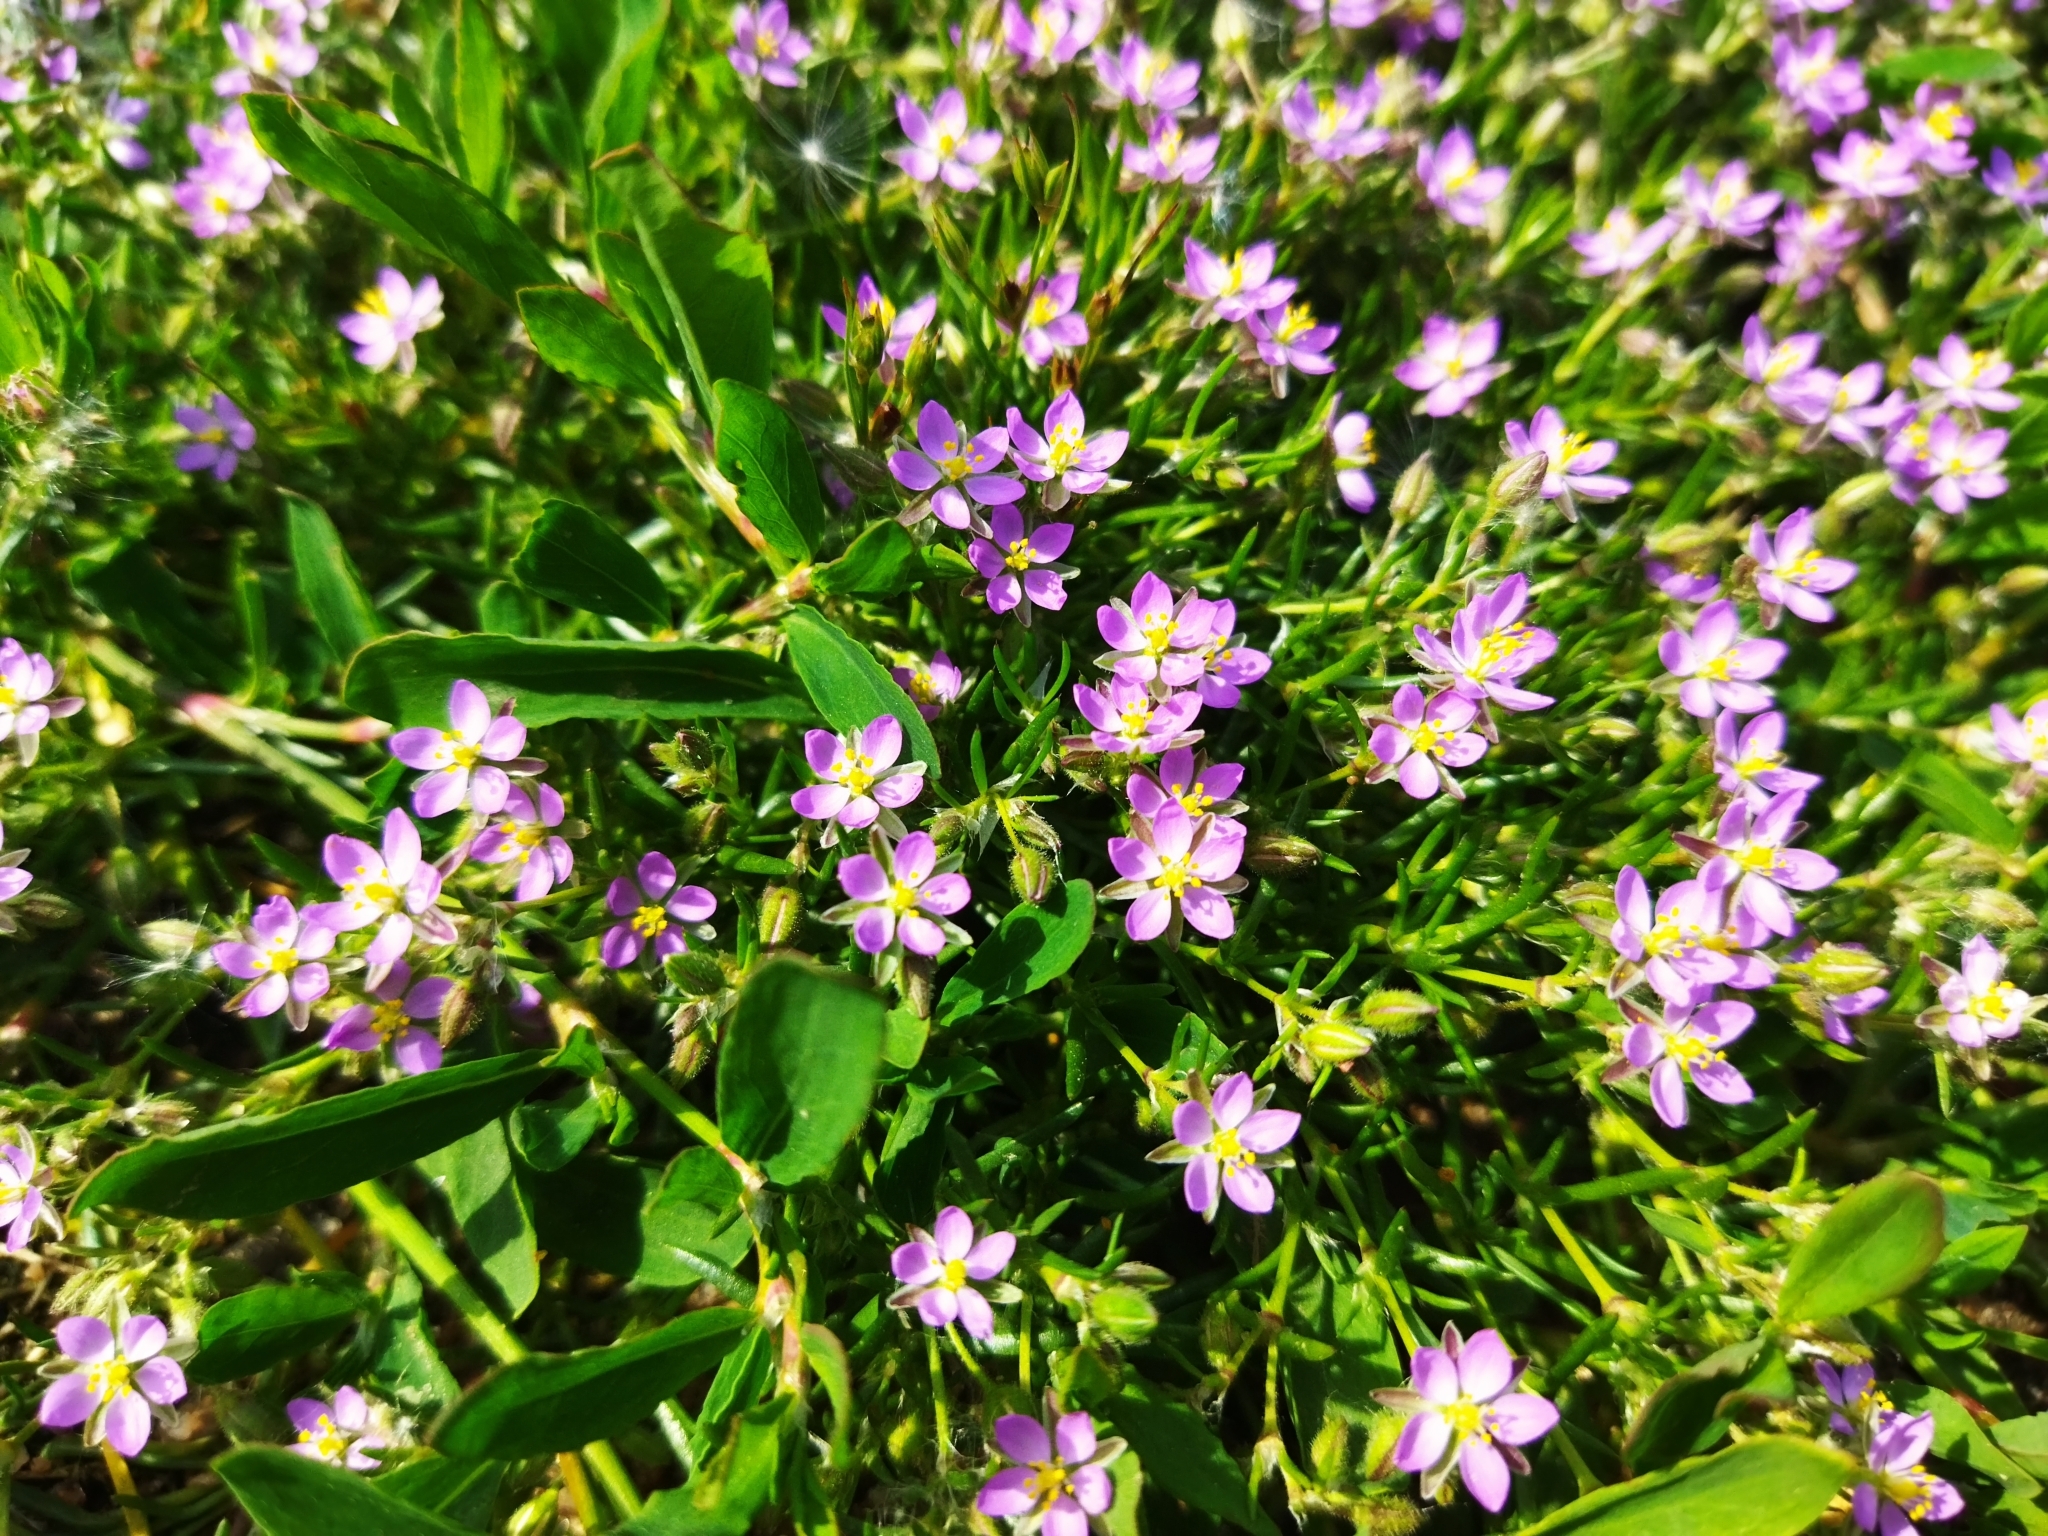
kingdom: Plantae
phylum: Tracheophyta
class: Magnoliopsida
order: Caryophyllales
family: Caryophyllaceae
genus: Spergularia
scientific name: Spergularia rubra
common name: Red sand-spurrey
